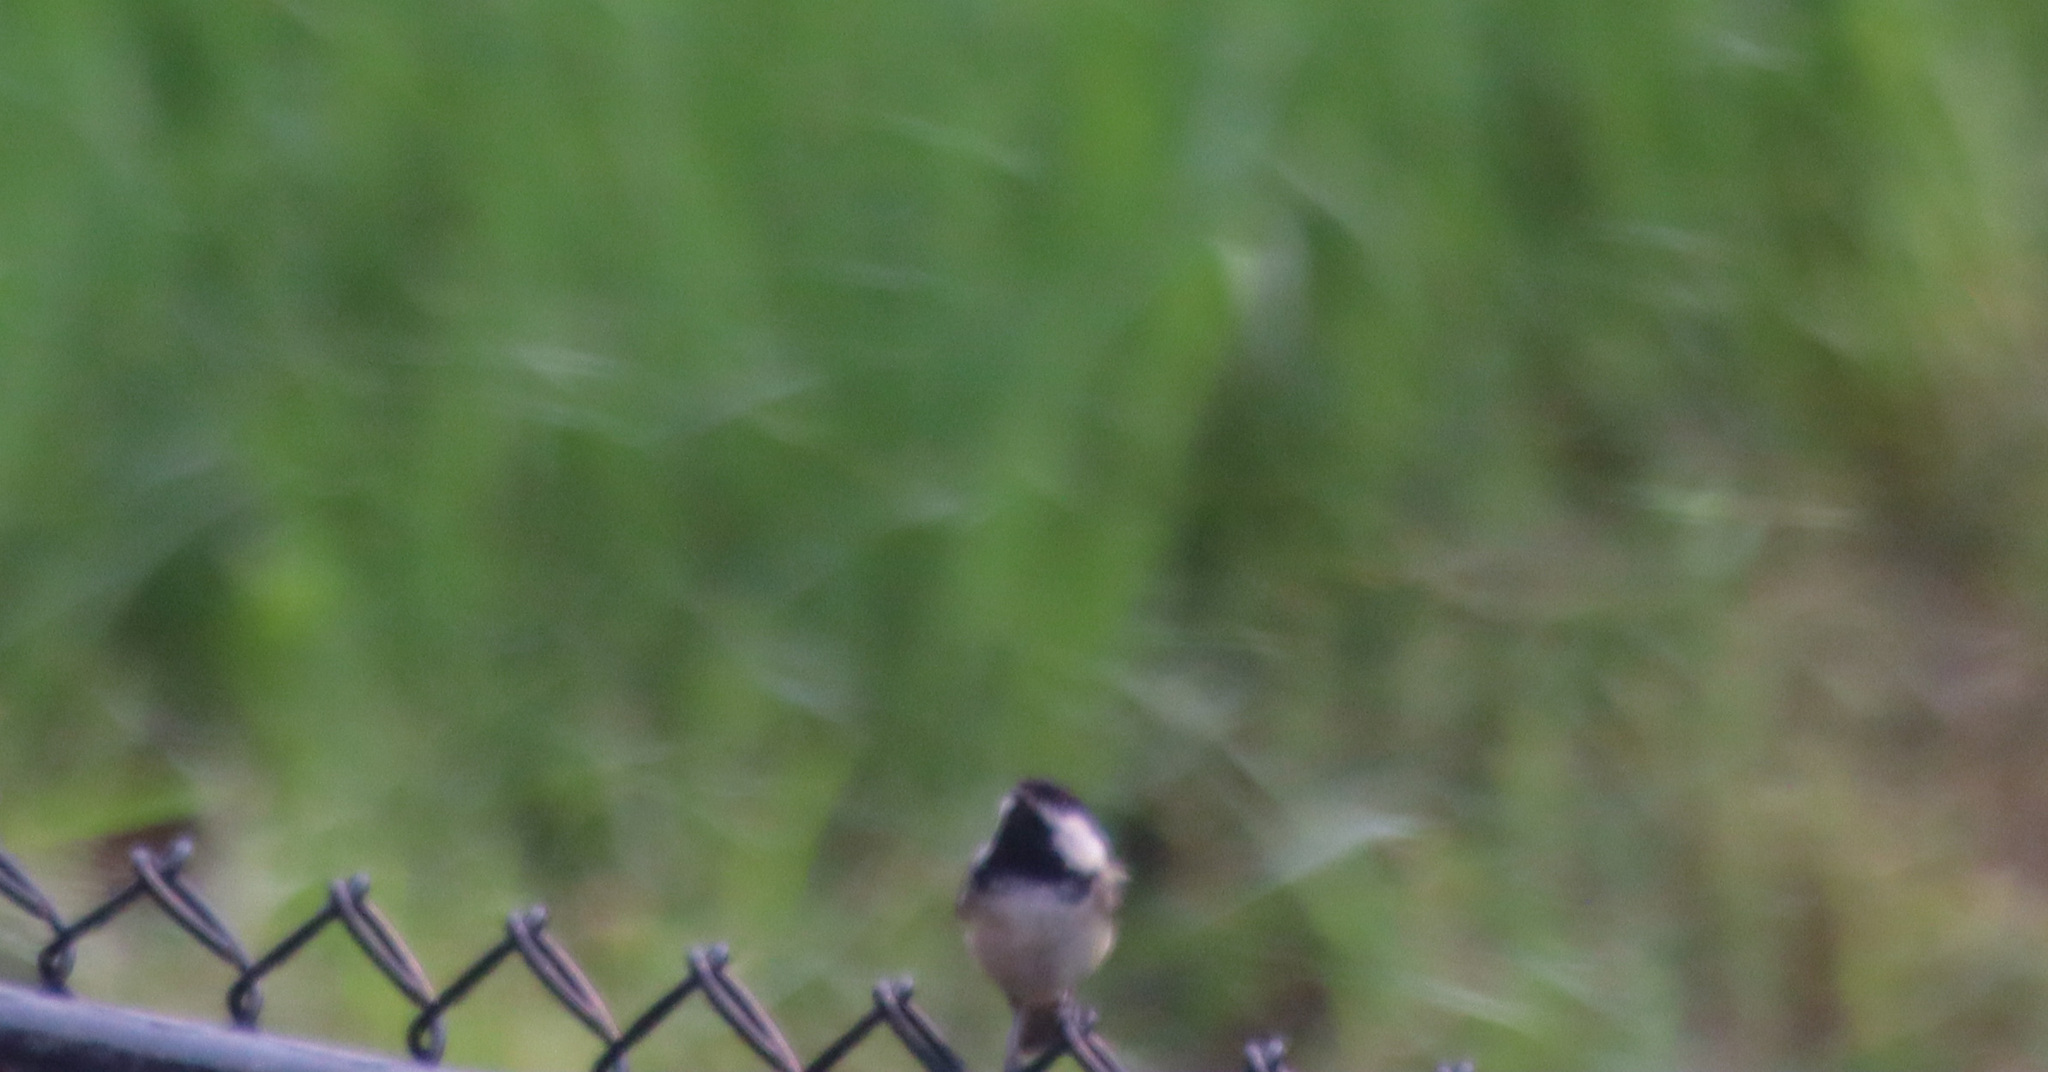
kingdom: Animalia
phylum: Chordata
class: Aves
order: Passeriformes
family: Paridae
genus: Poecile
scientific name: Poecile atricapillus
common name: Black-capped chickadee
